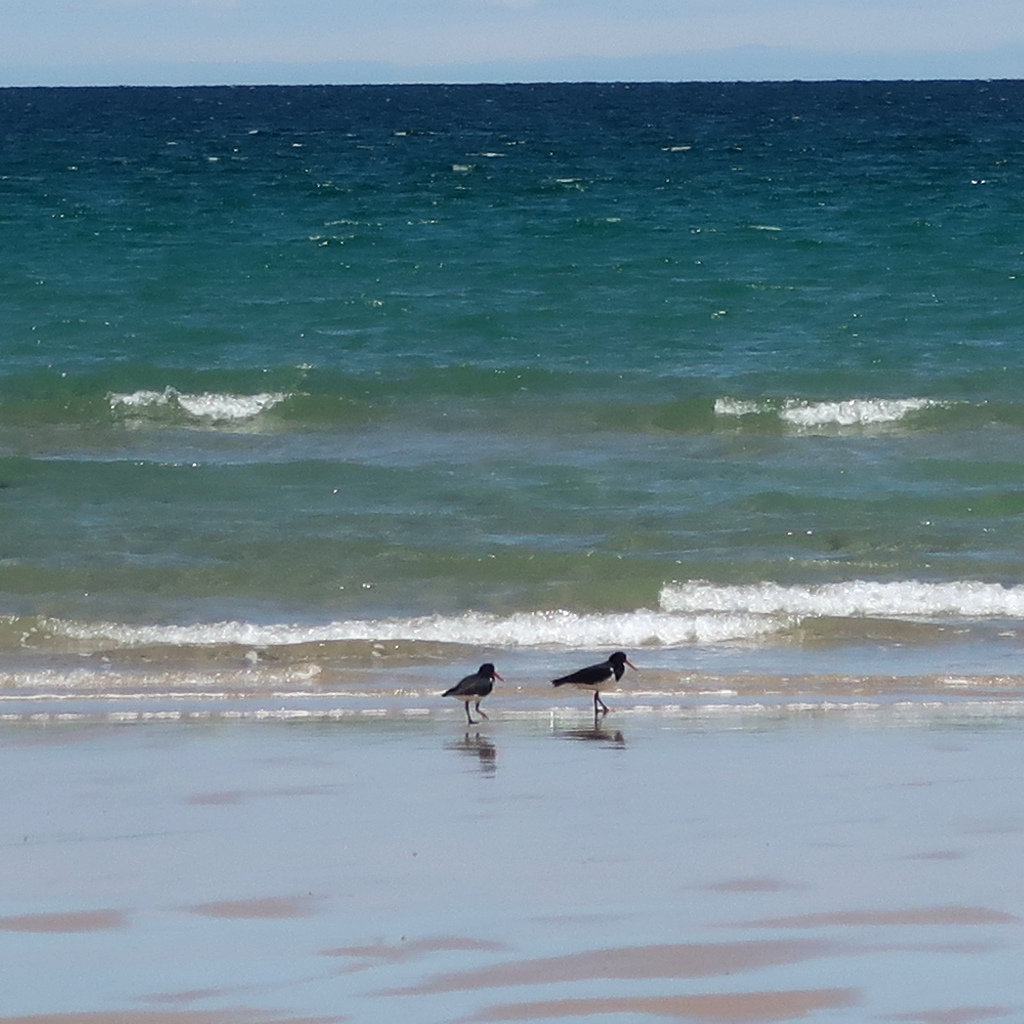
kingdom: Animalia
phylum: Chordata
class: Aves
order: Charadriiformes
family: Haematopodidae
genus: Haematopus
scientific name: Haematopus longirostris
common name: Pied oystercatcher
